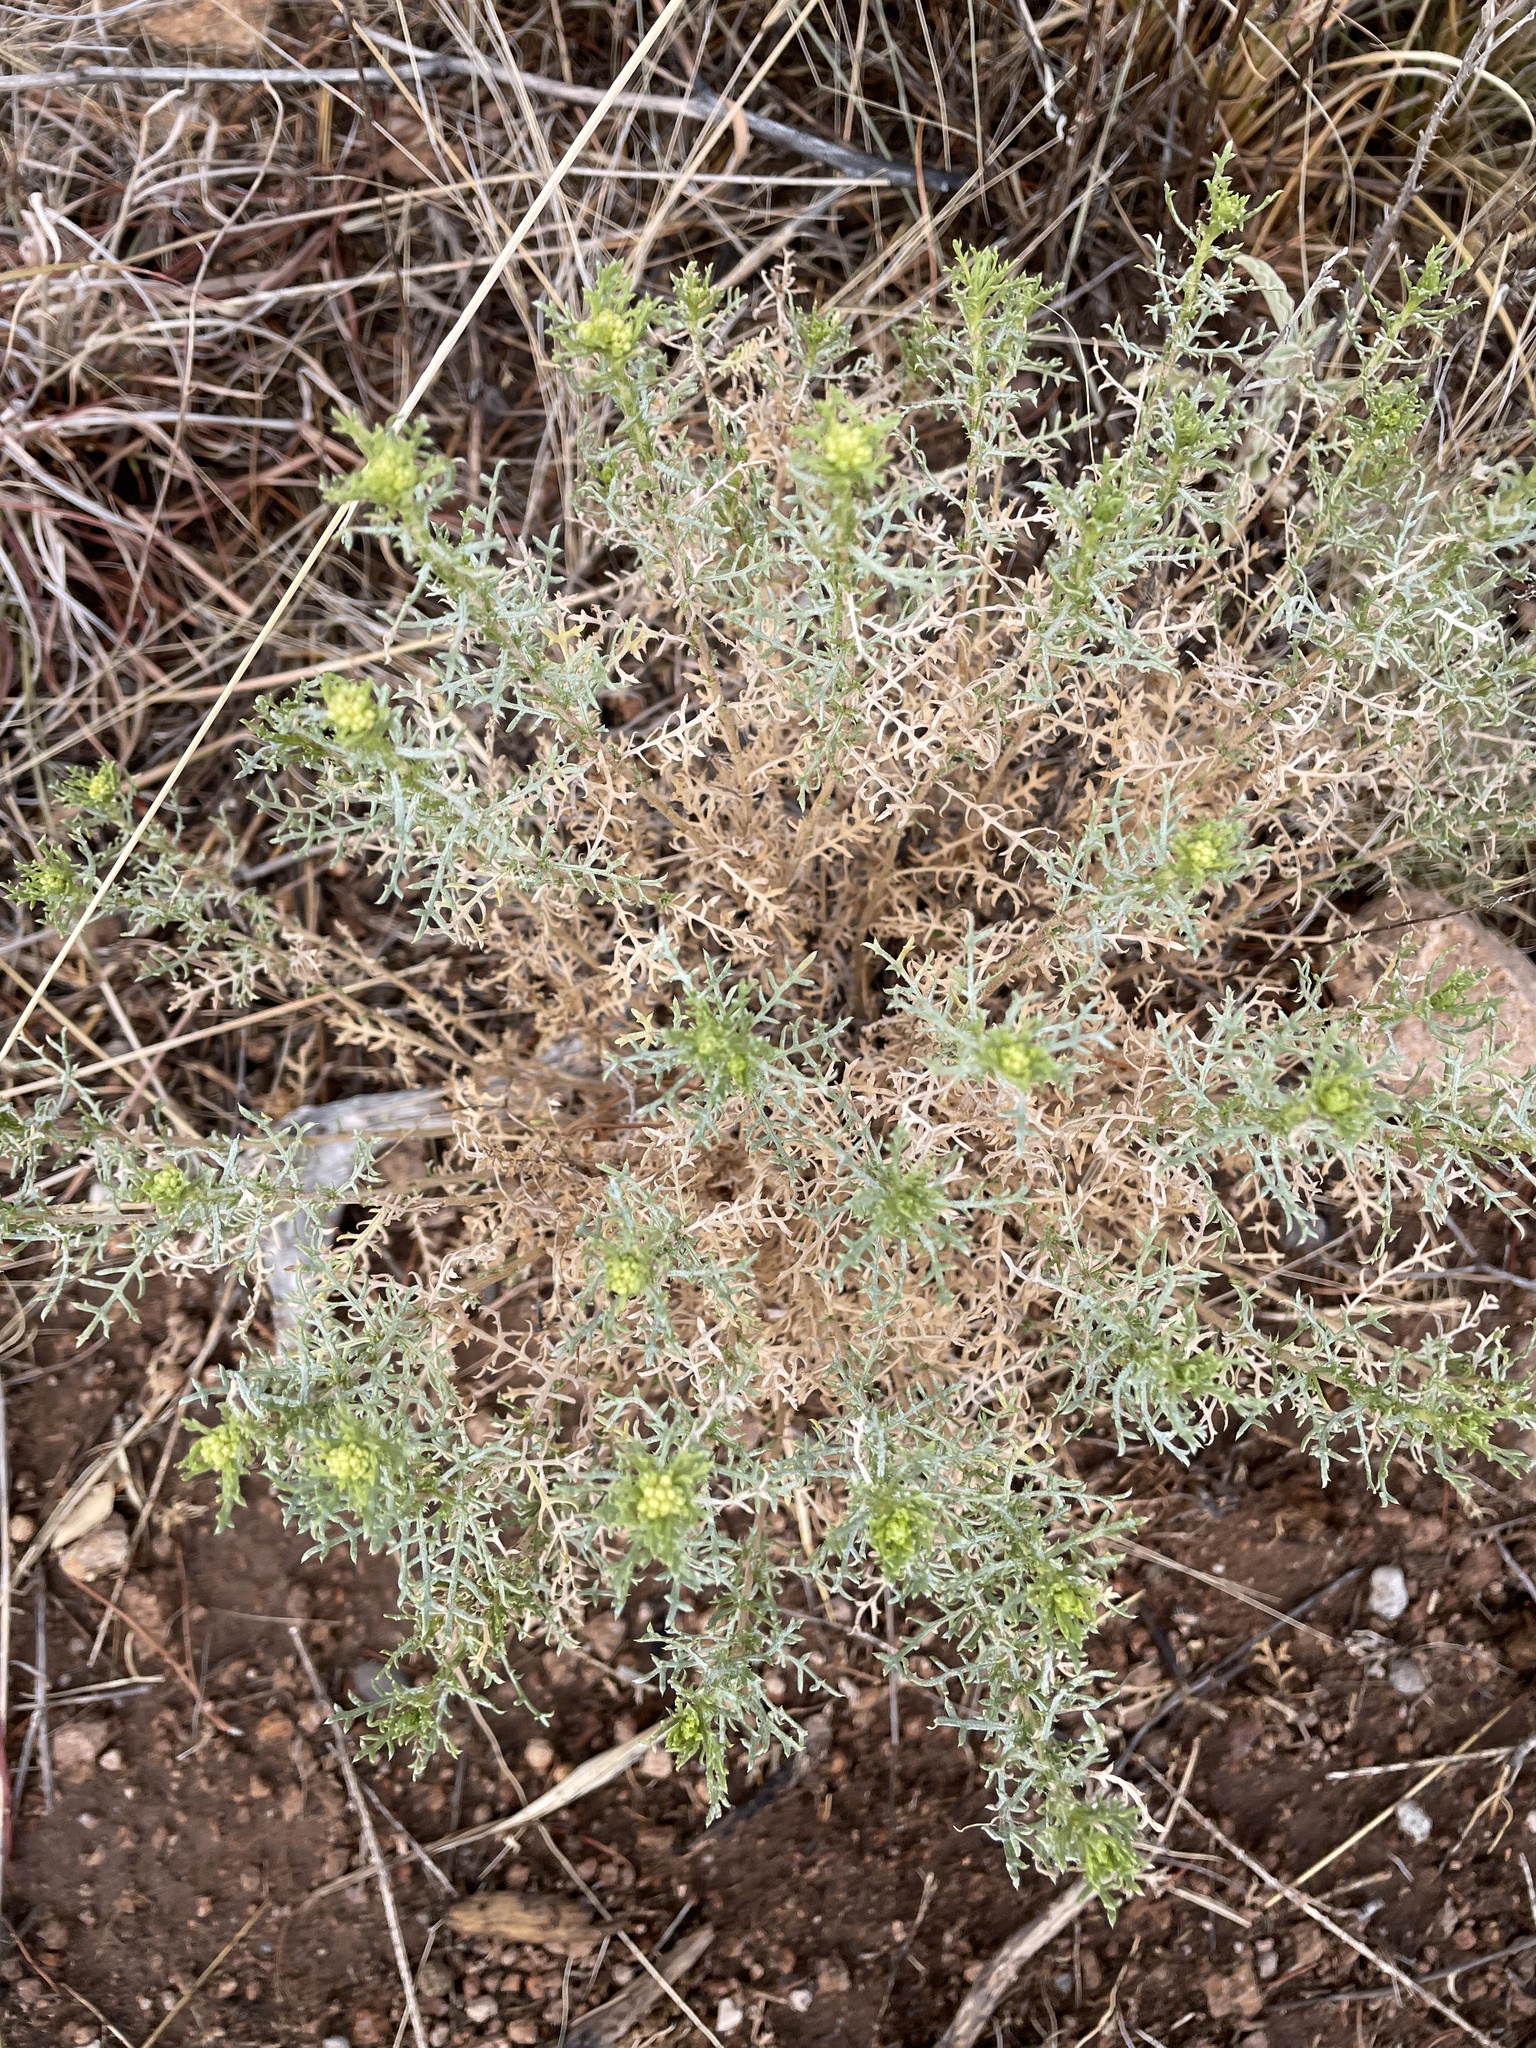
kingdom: Plantae
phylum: Tracheophyta
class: Magnoliopsida
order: Asterales
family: Asteraceae
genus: Isocoma
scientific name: Isocoma tenuisecta
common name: Burroweed
